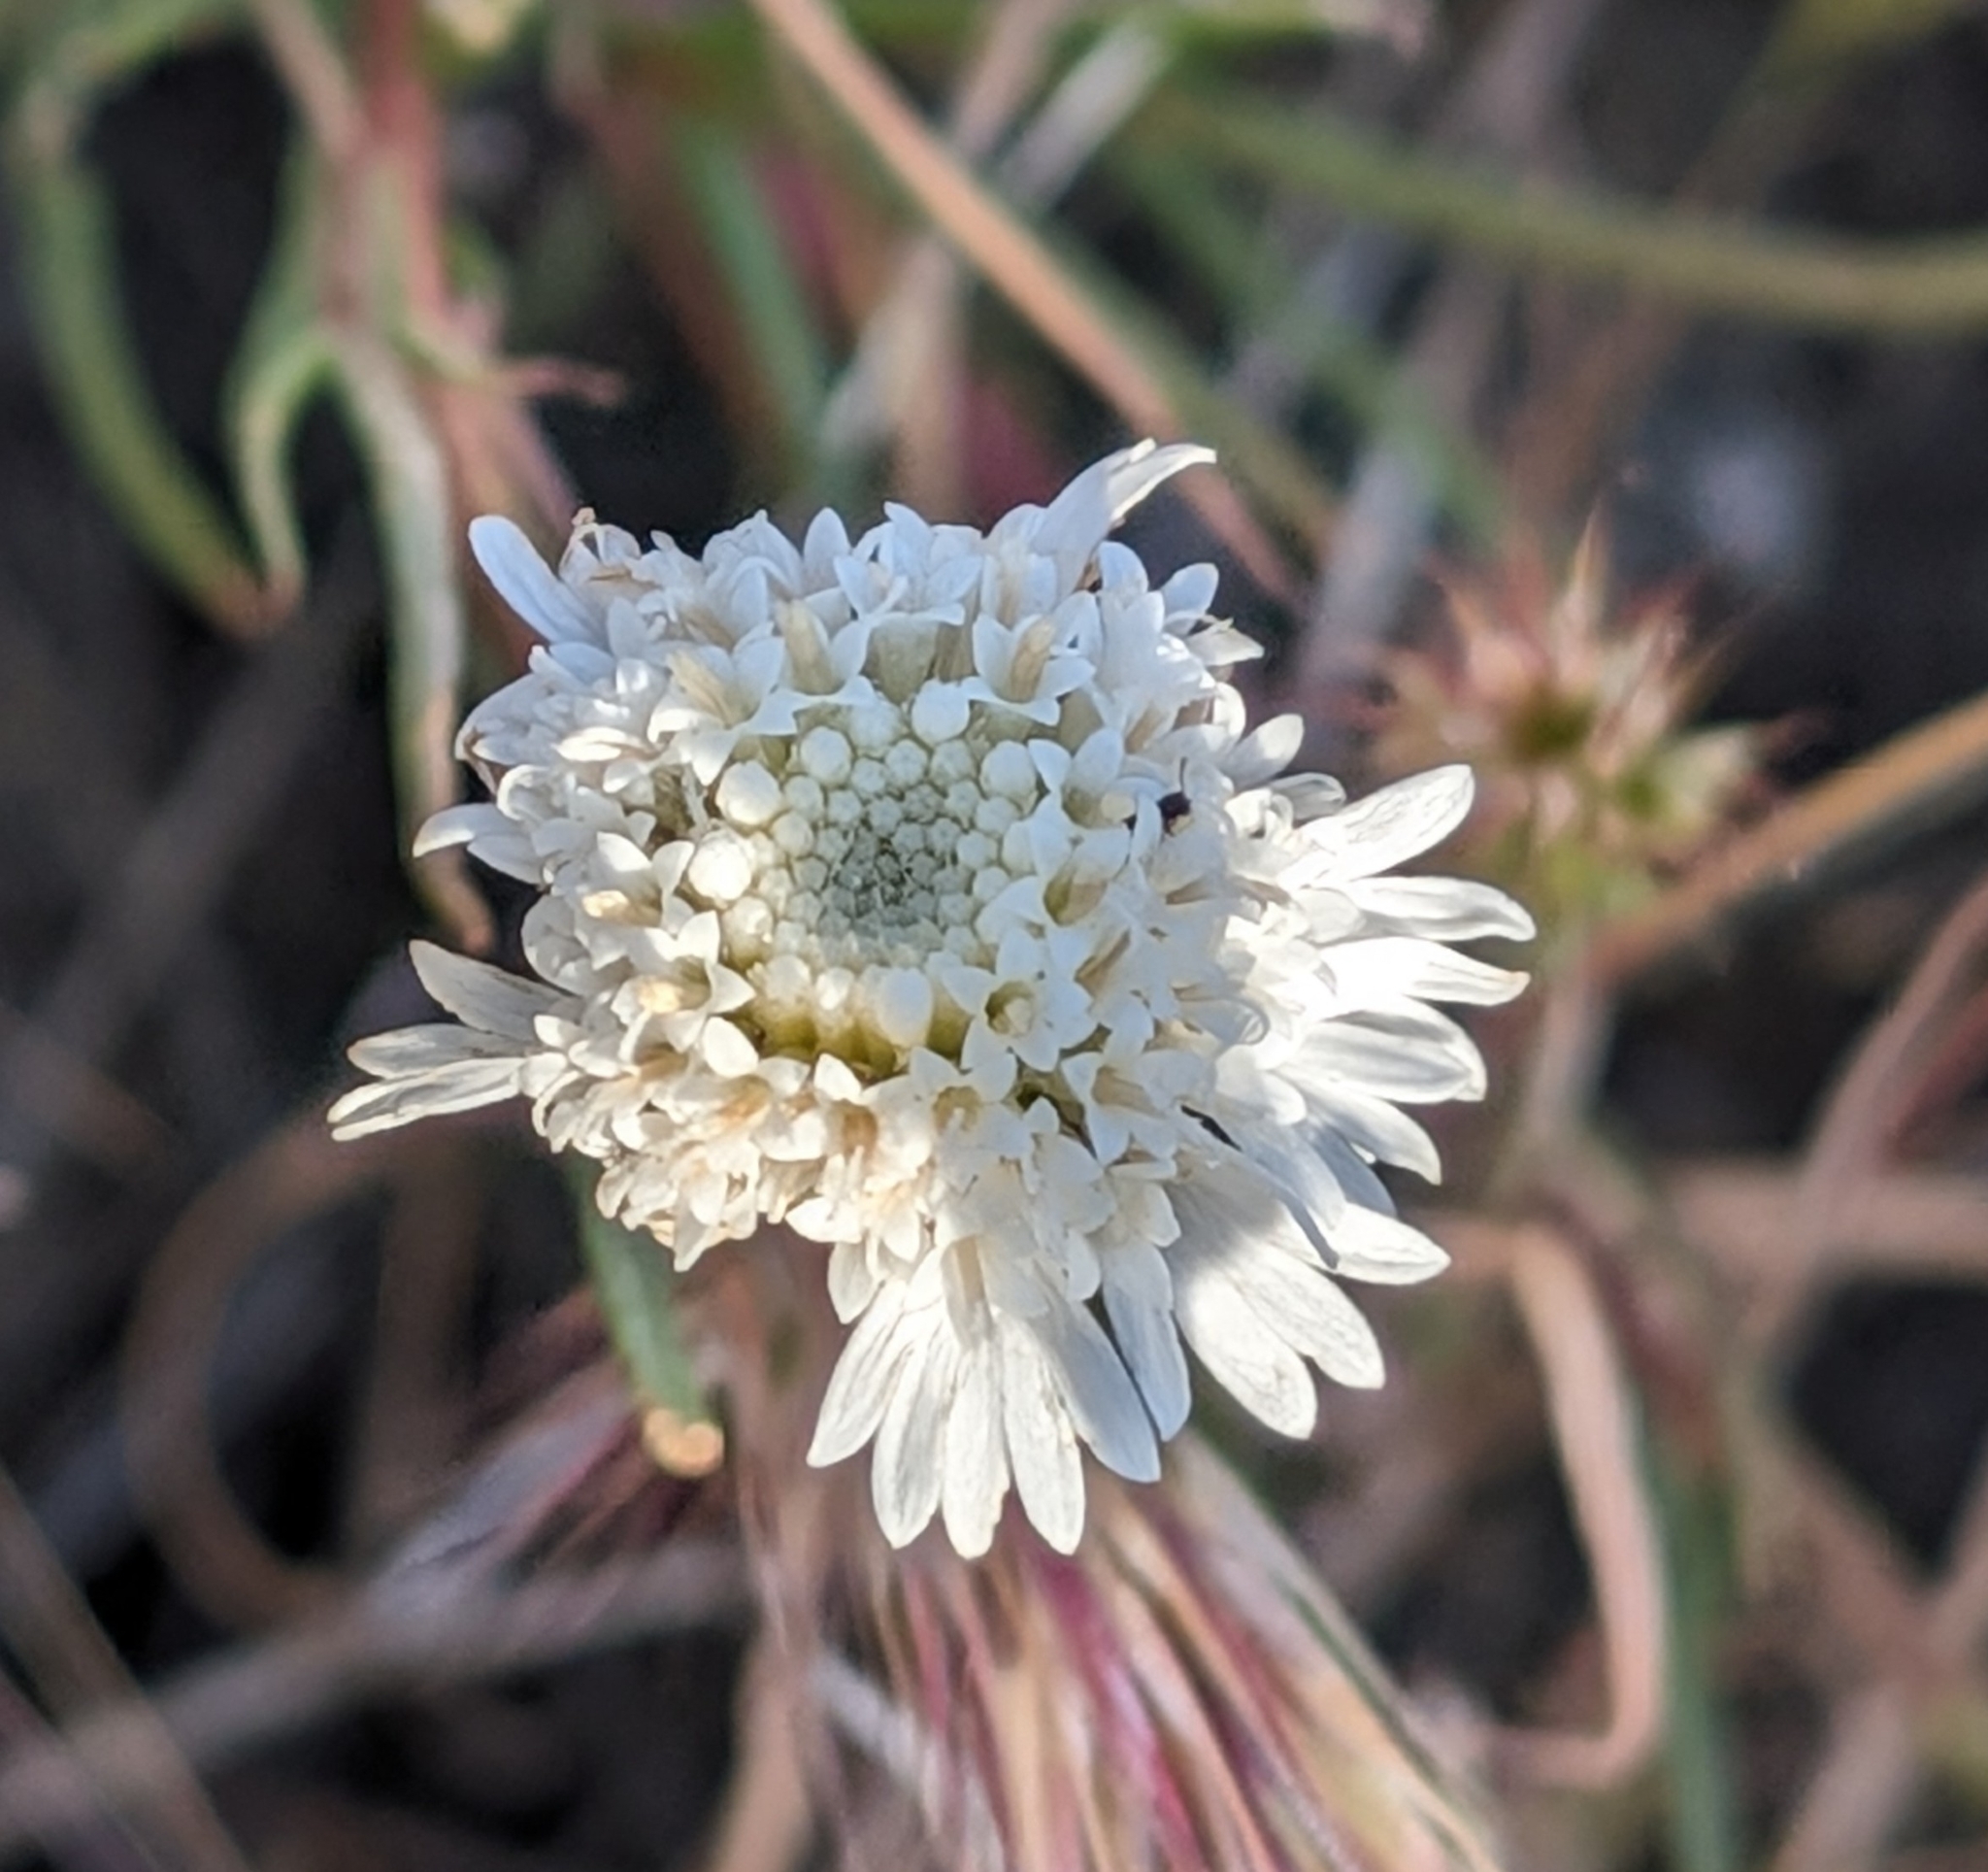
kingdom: Plantae
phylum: Tracheophyta
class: Magnoliopsida
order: Asterales
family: Asteraceae
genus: Chaenactis
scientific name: Chaenactis fremontii
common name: Fremont pincushion
